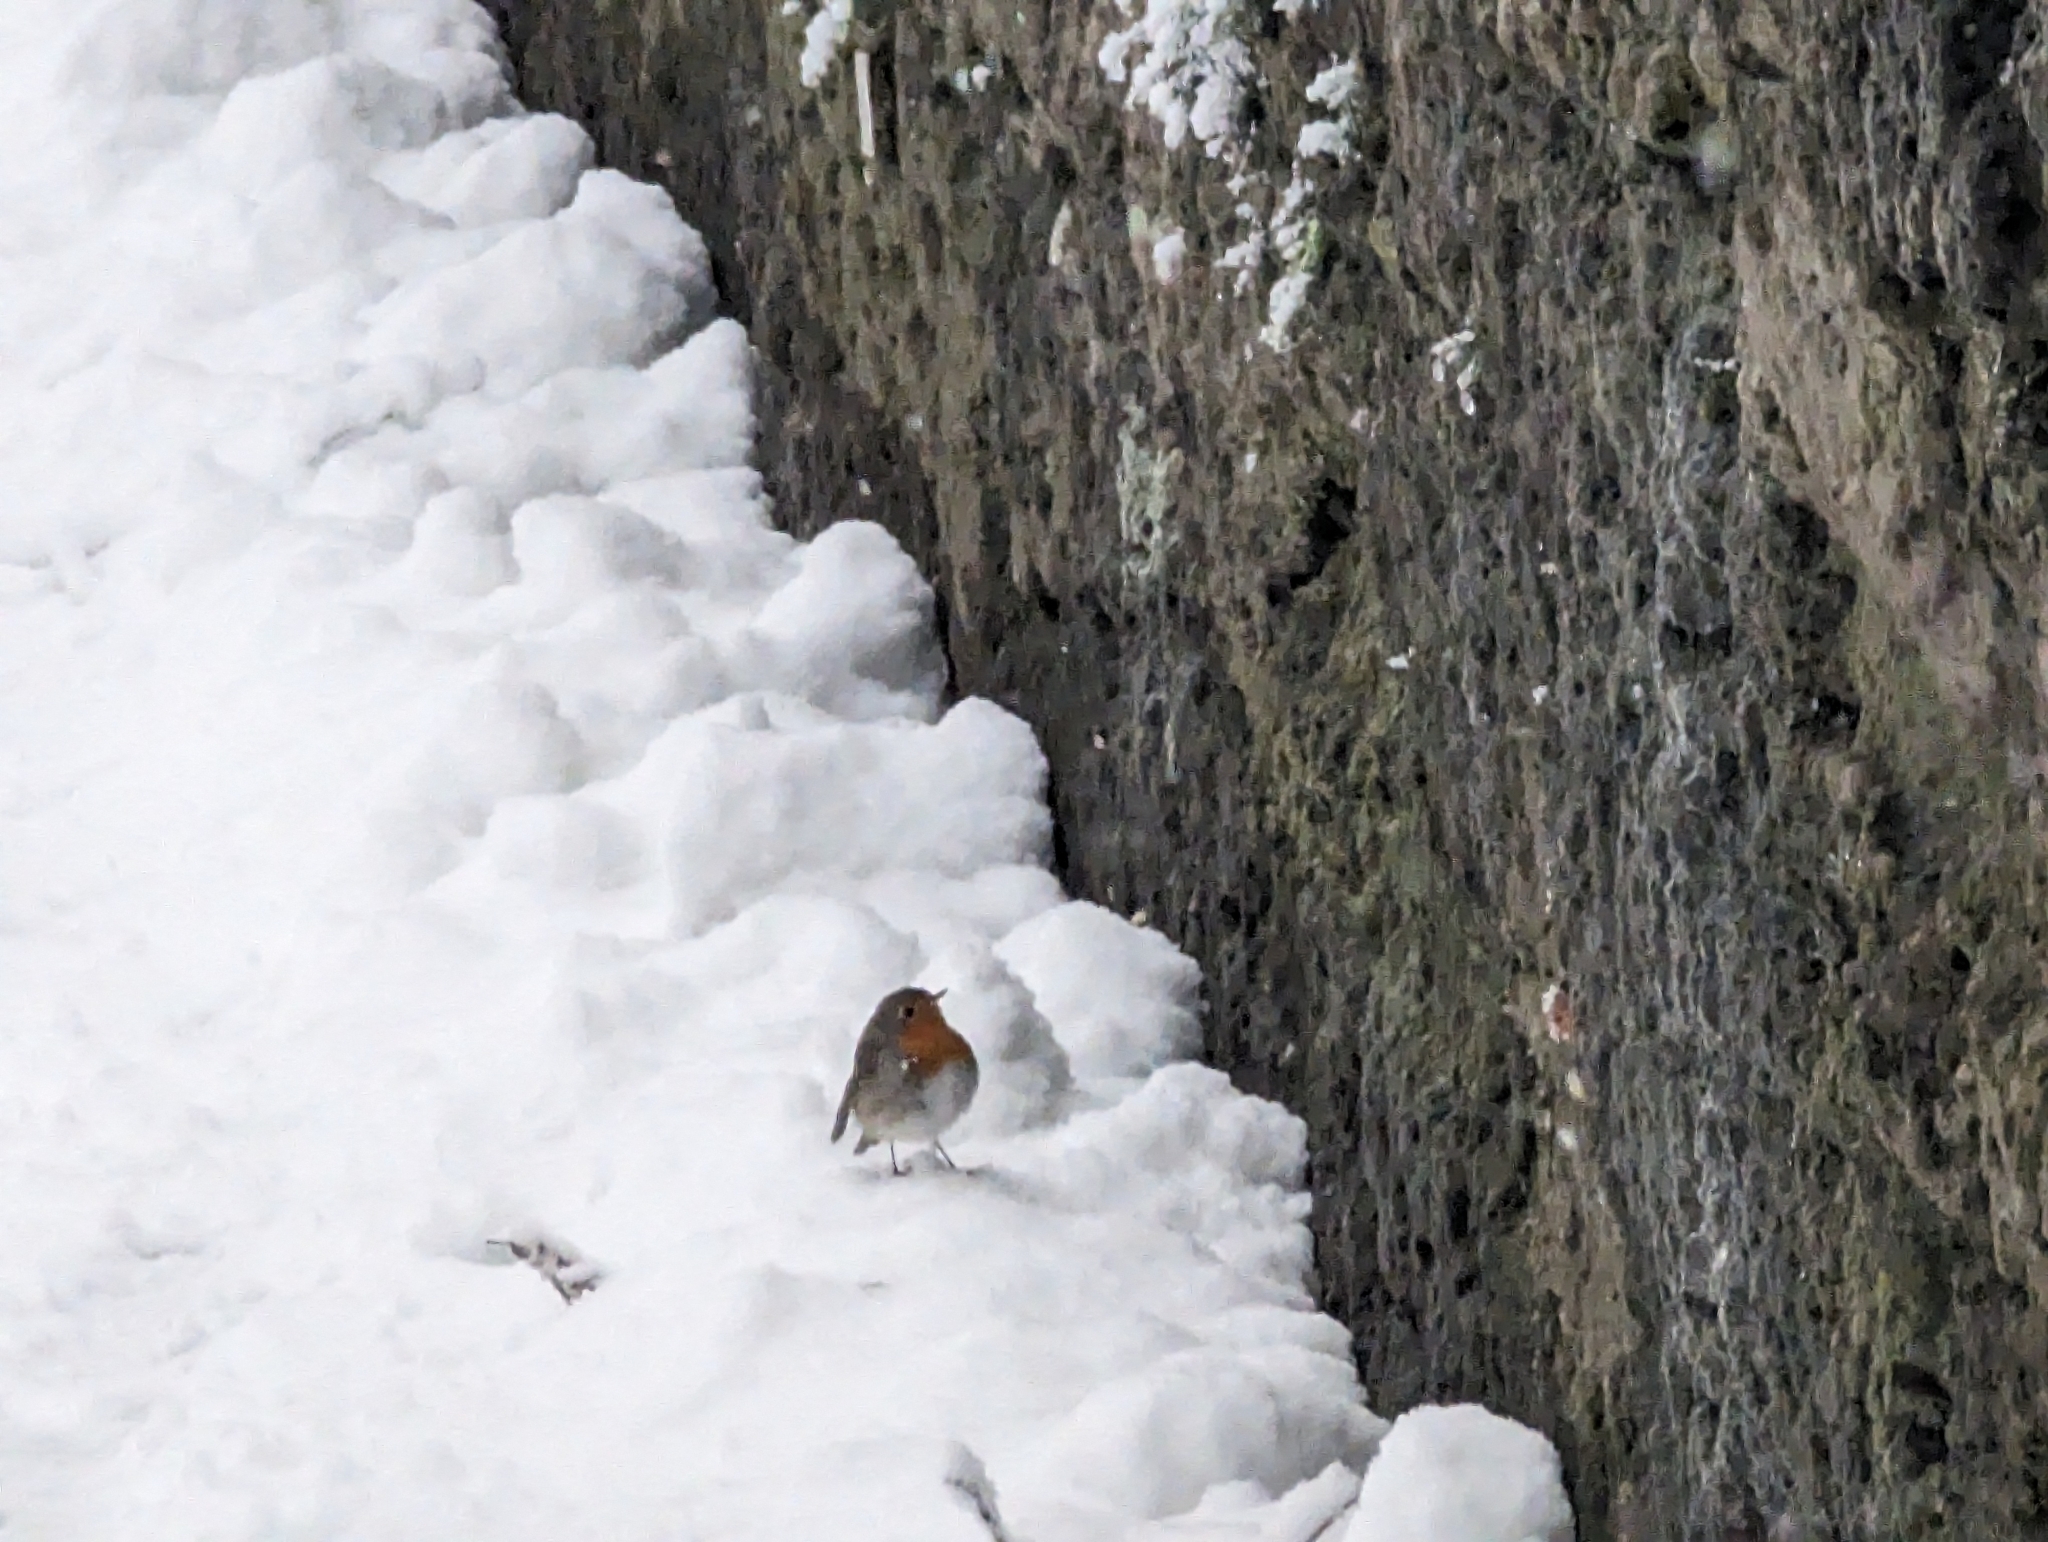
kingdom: Animalia
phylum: Chordata
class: Aves
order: Passeriformes
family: Muscicapidae
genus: Erithacus
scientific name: Erithacus rubecula
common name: European robin
